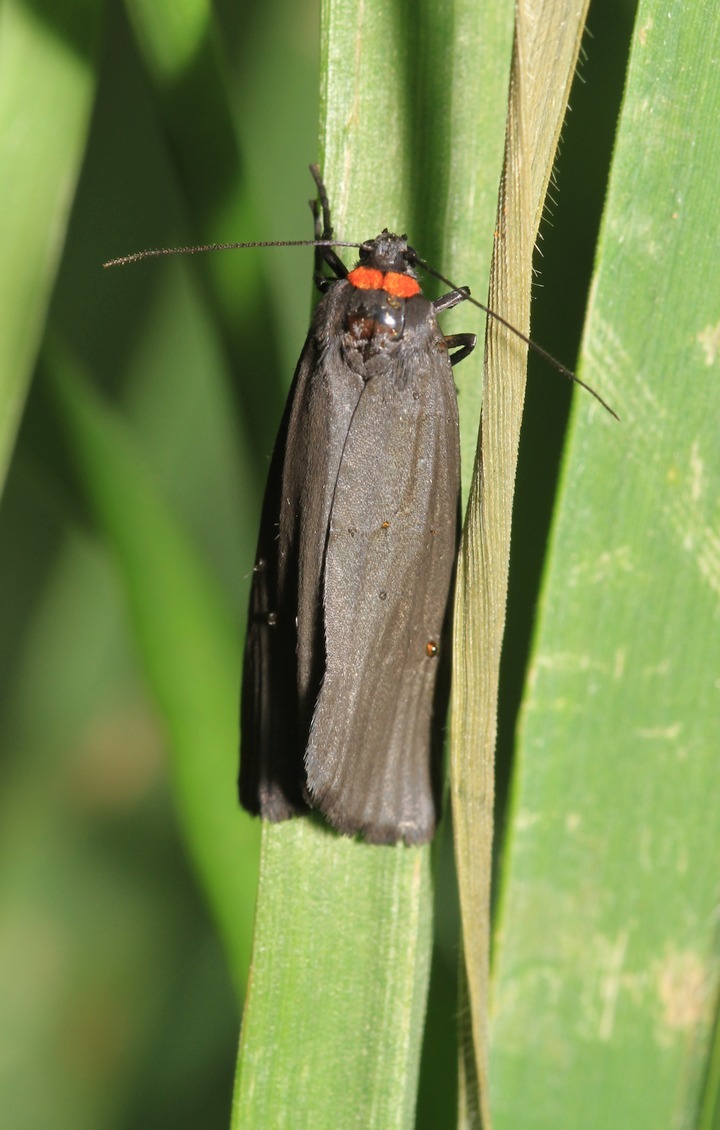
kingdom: Animalia
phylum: Arthropoda
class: Insecta
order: Lepidoptera
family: Erebidae
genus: Atolmis
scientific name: Atolmis rubricollis
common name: Red-necked footman
